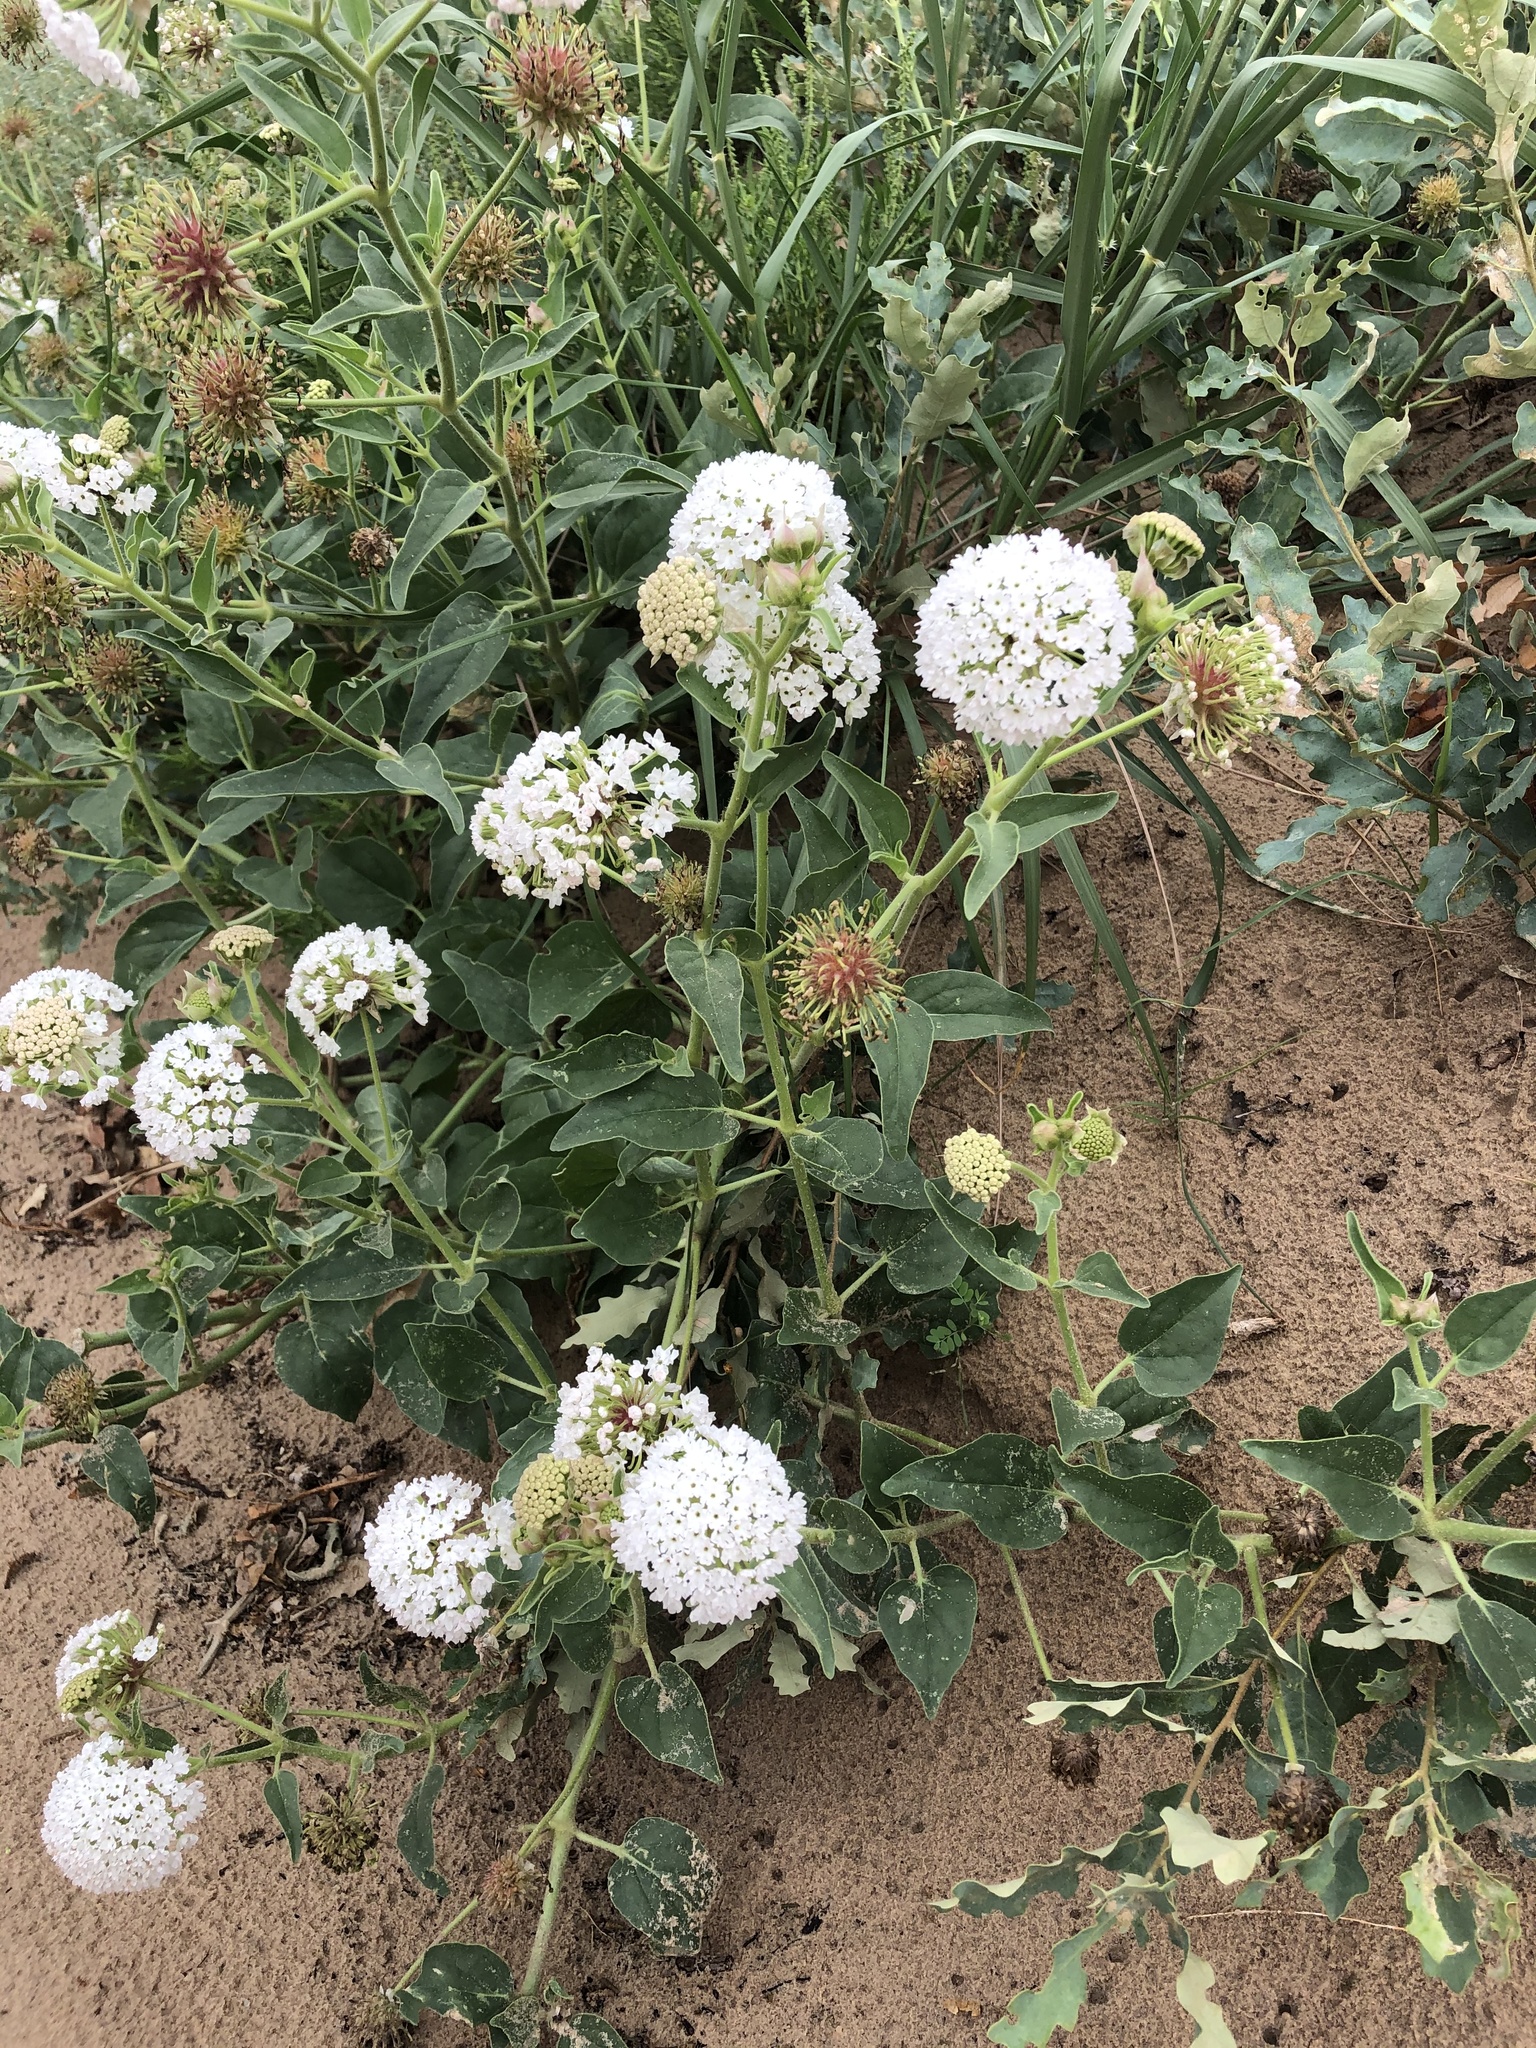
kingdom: Plantae
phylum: Tracheophyta
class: Magnoliopsida
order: Caryophyllales
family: Nyctaginaceae
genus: Abronia
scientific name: Abronia fragrans
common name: Fragrant sand-verbena
